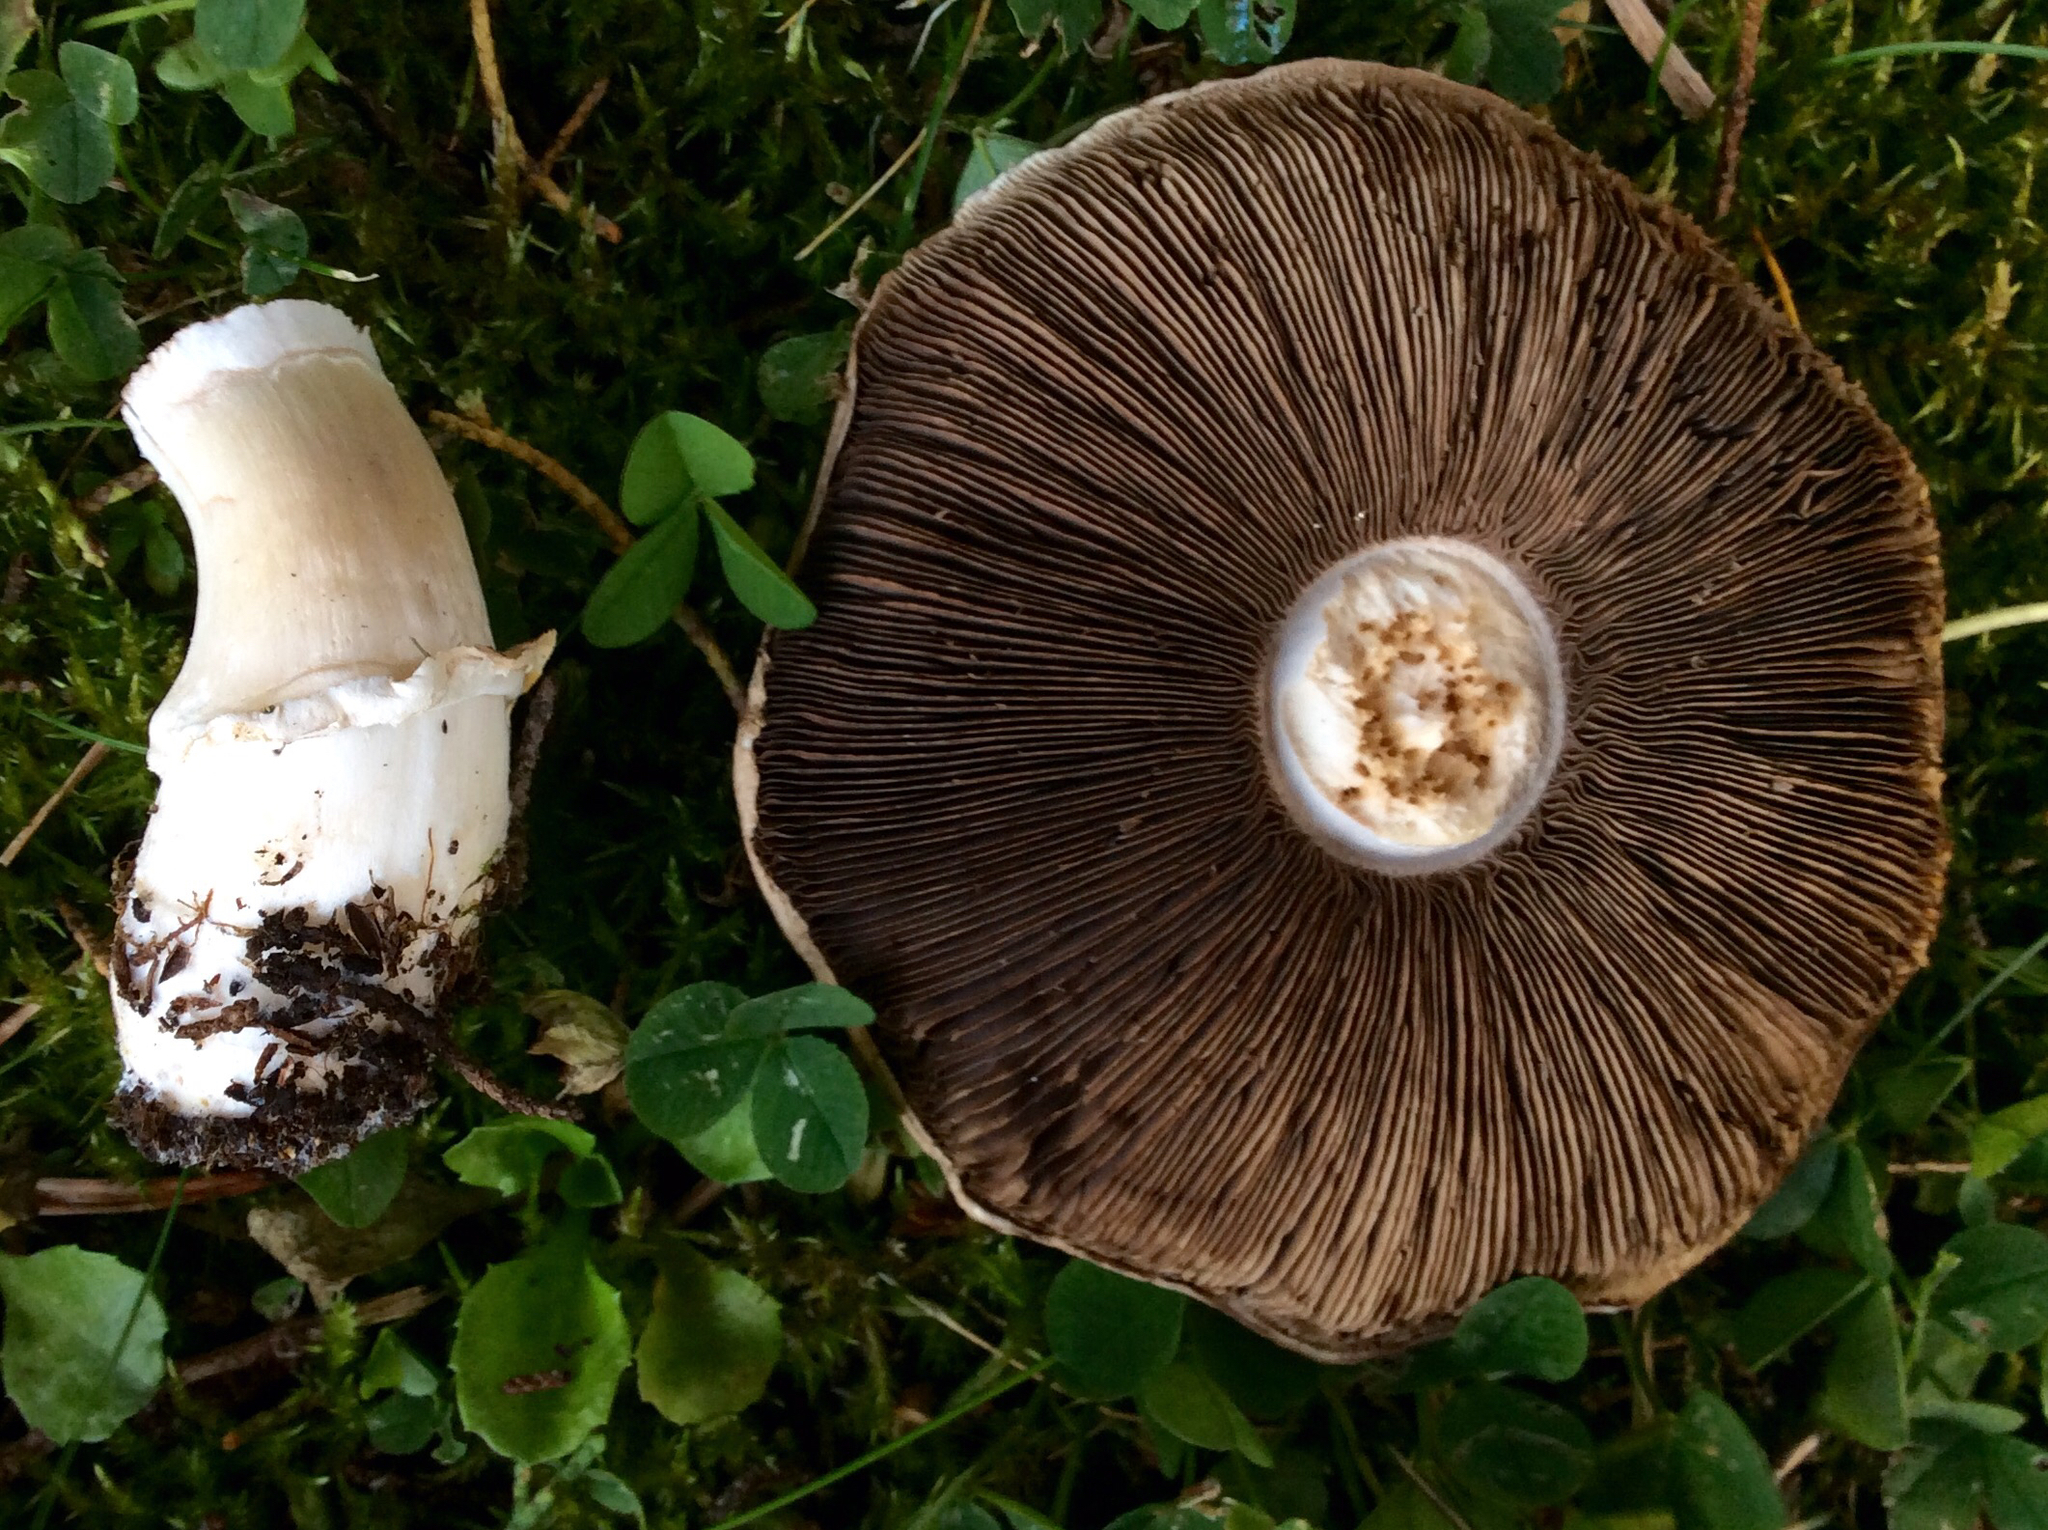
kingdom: Fungi
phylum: Basidiomycota
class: Agaricomycetes
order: Agaricales
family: Agaricaceae
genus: Agaricus
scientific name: Agaricus californicus
